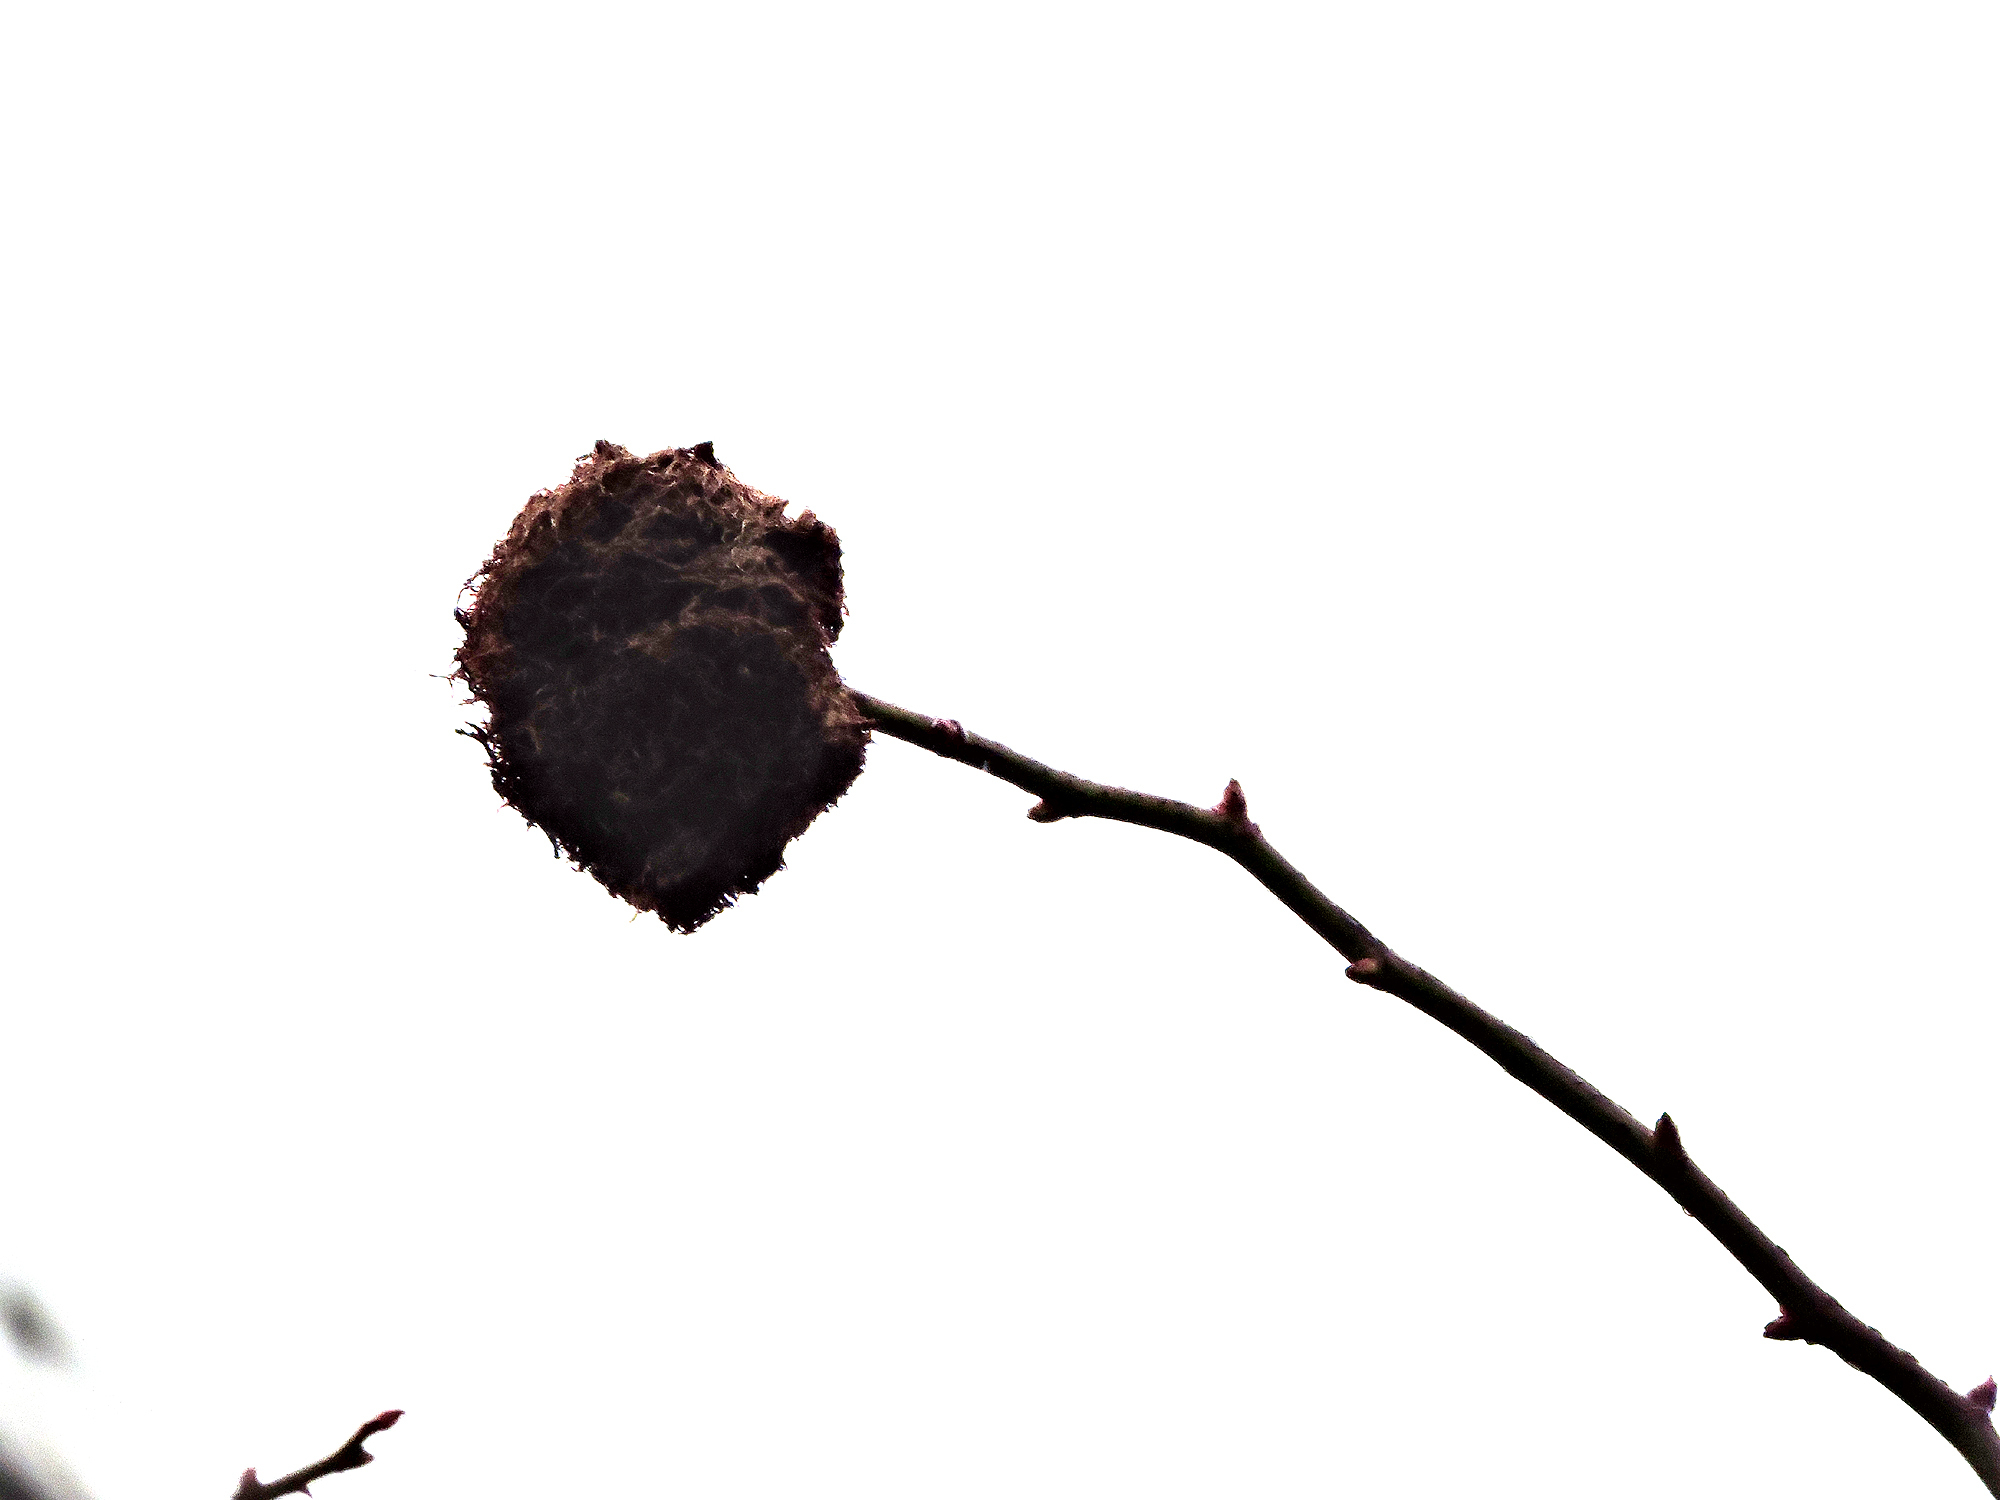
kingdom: Animalia
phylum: Arthropoda
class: Insecta
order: Hymenoptera
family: Cynipidae
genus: Diplolepis
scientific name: Diplolepis rosae
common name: Bedeguar gall
